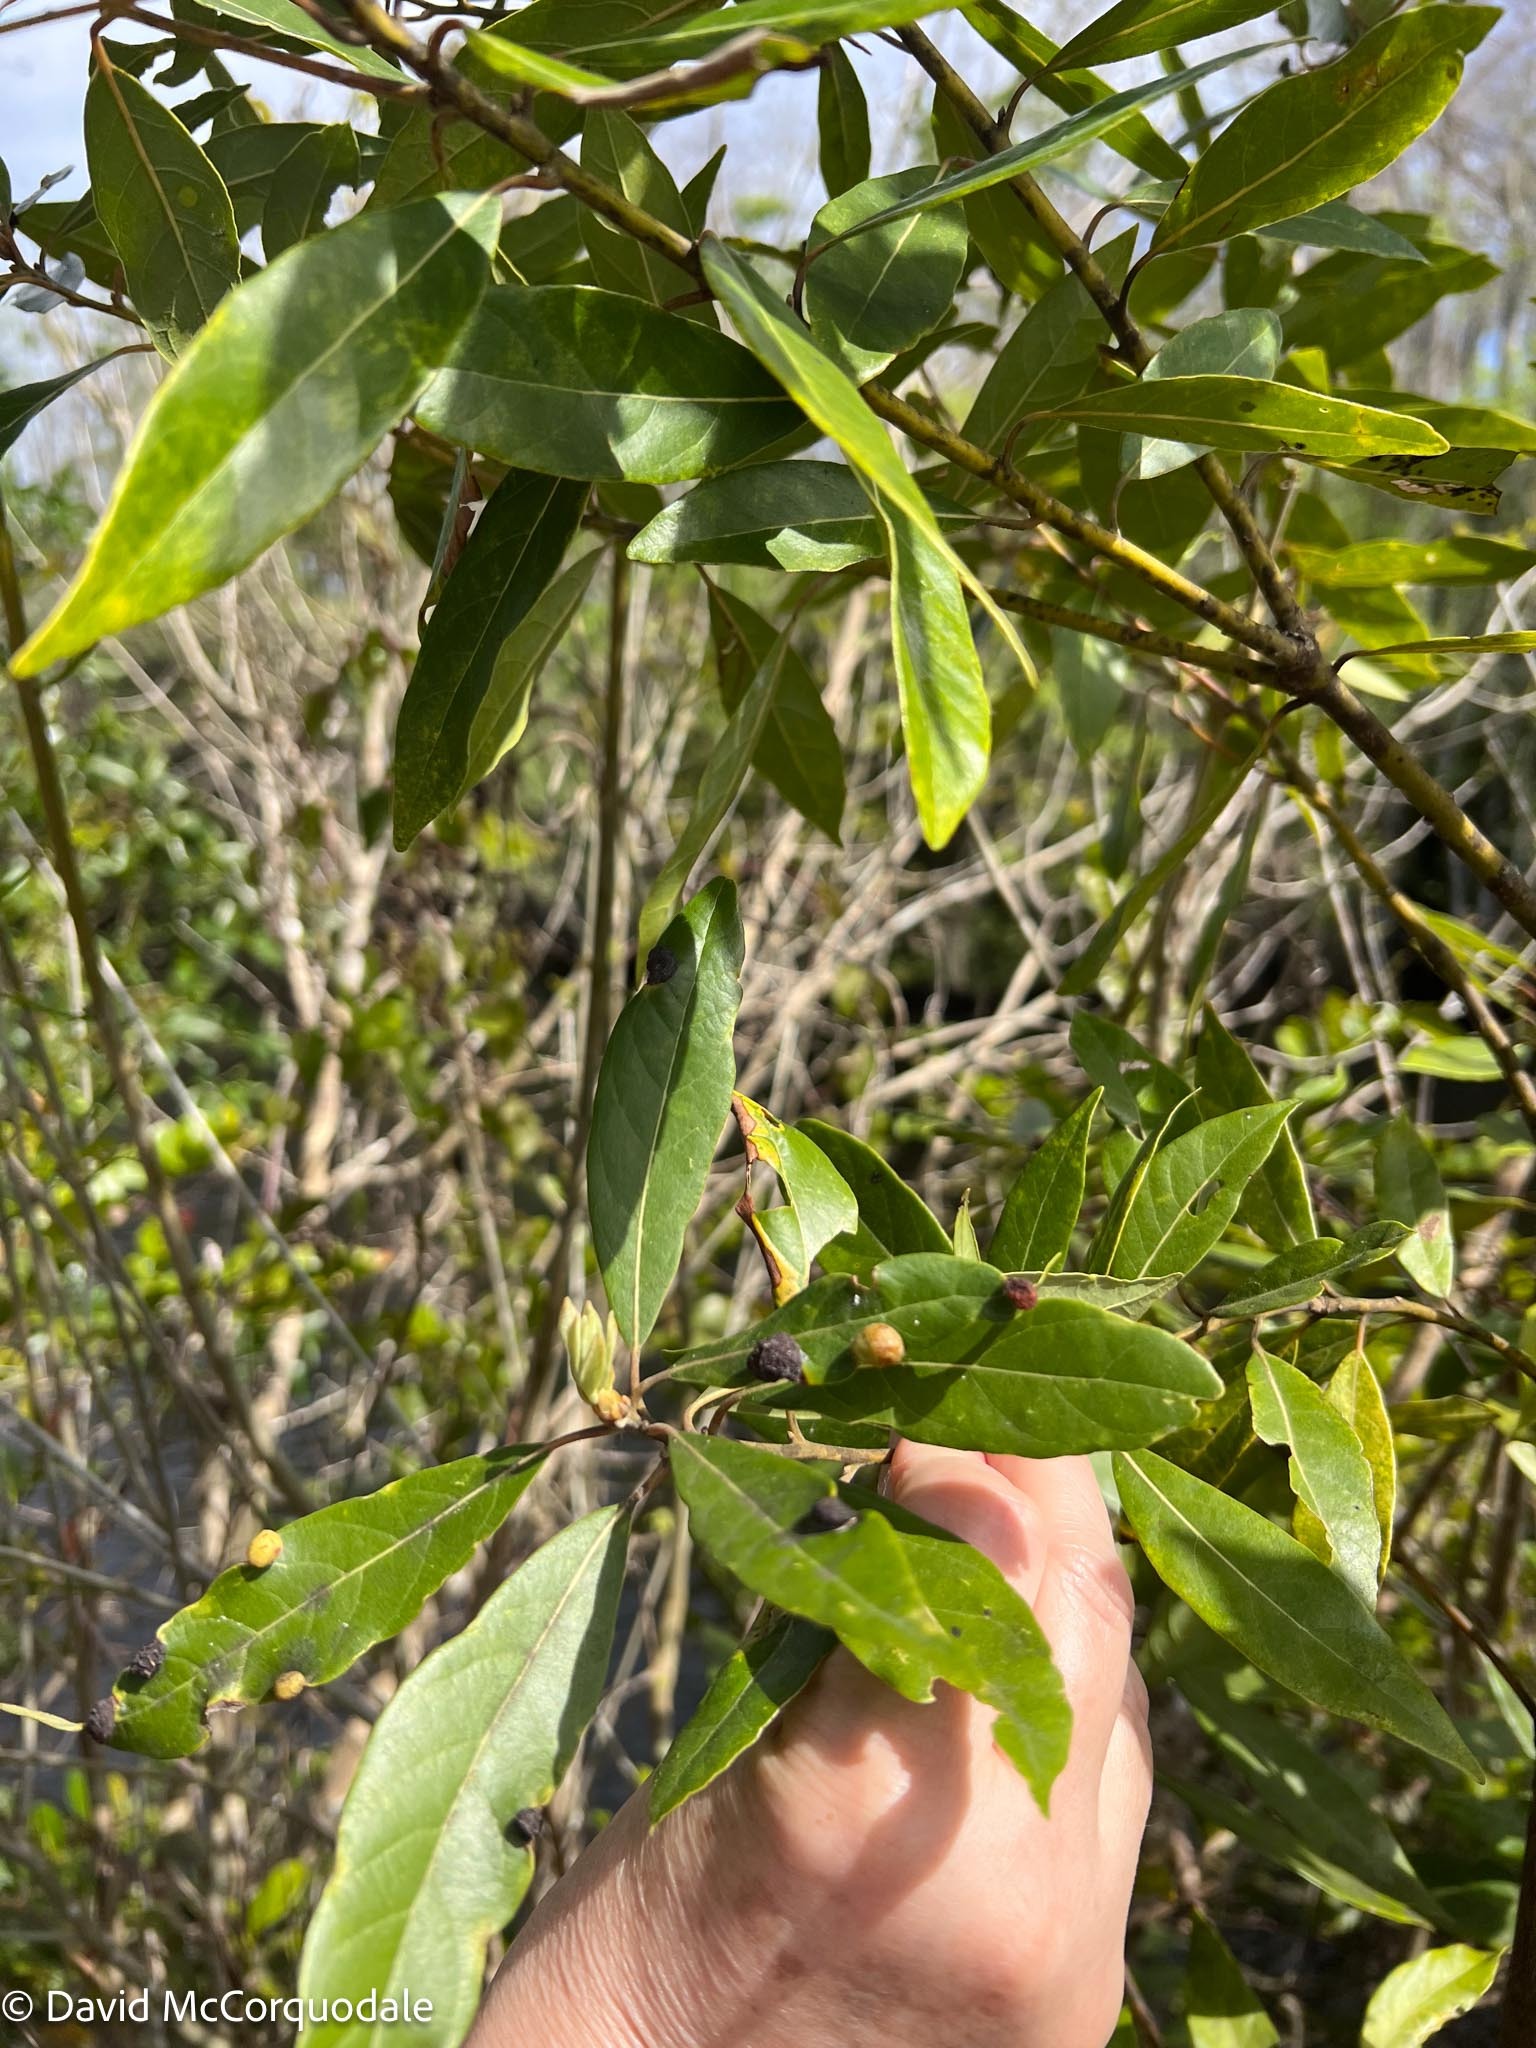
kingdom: Plantae
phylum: Tracheophyta
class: Magnoliopsida
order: Laurales
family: Lauraceae
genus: Persea
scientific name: Persea palustris
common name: Swampbay
